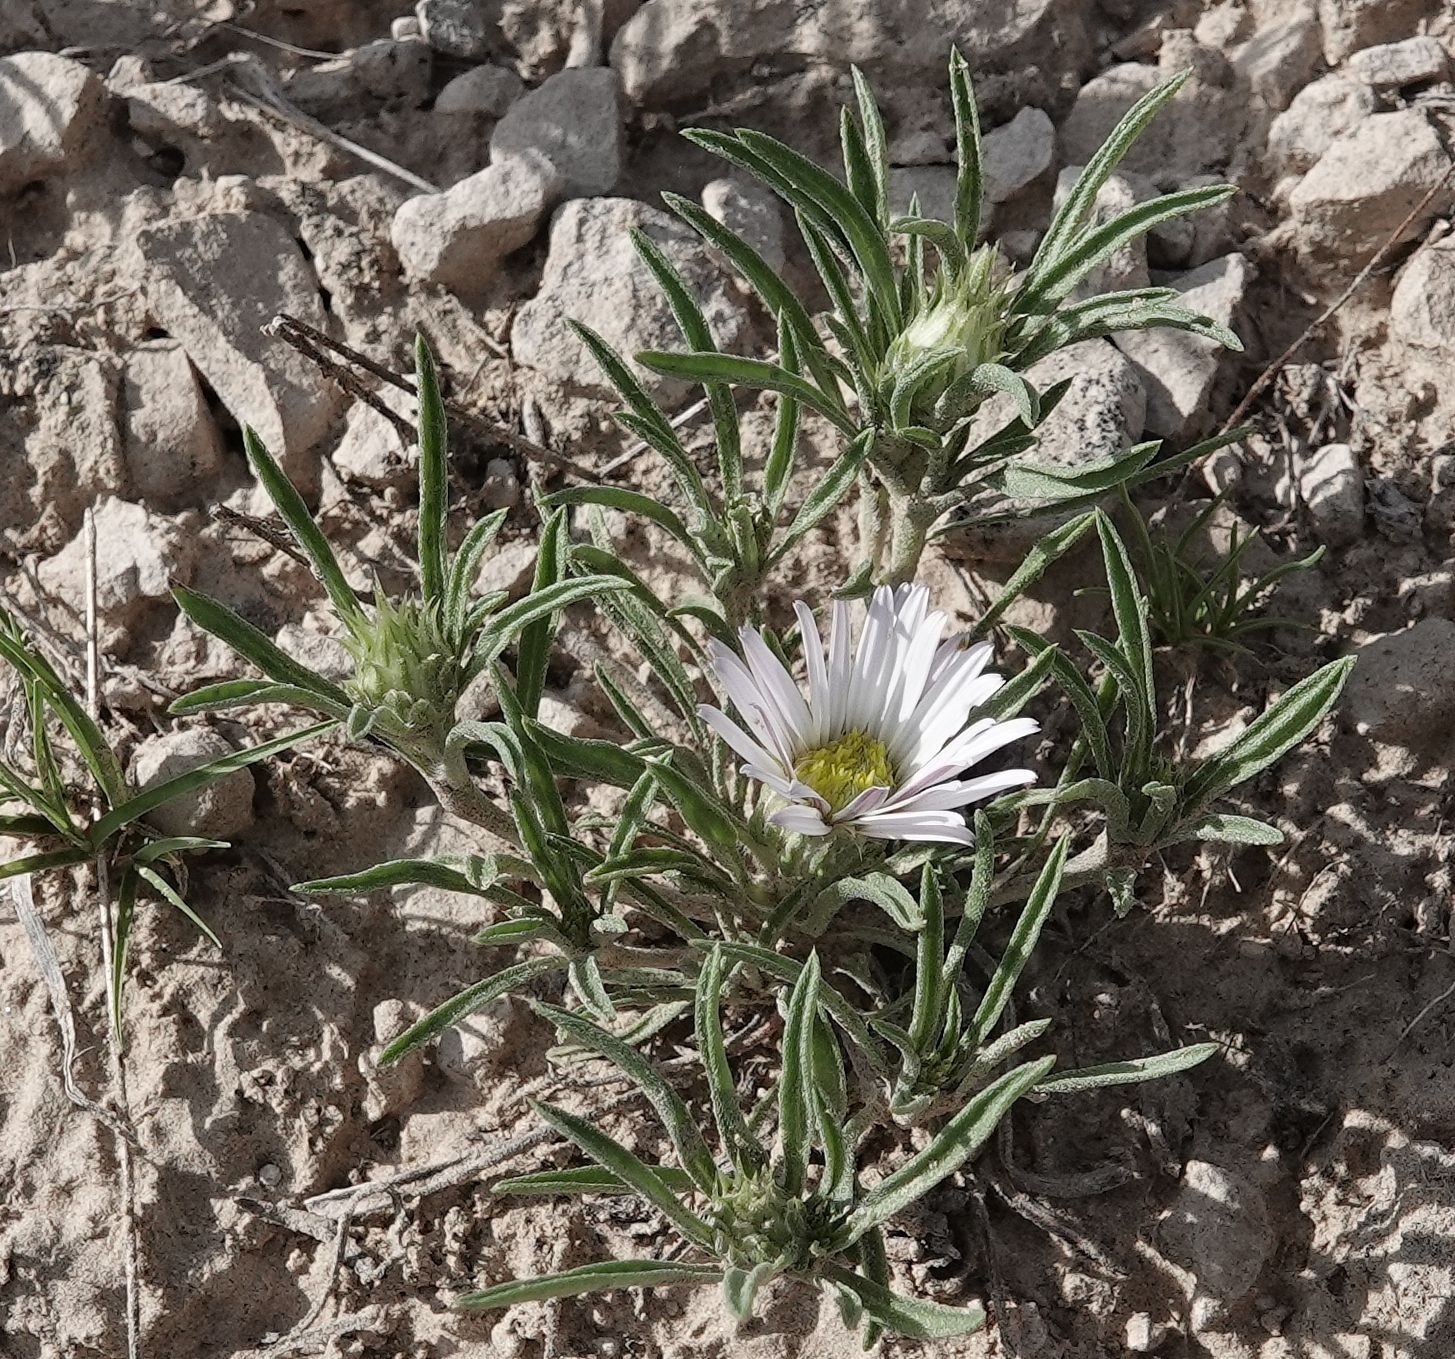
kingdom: Plantae
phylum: Tracheophyta
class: Magnoliopsida
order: Asterales
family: Asteraceae
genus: Townsendia
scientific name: Townsendia grandiflora
